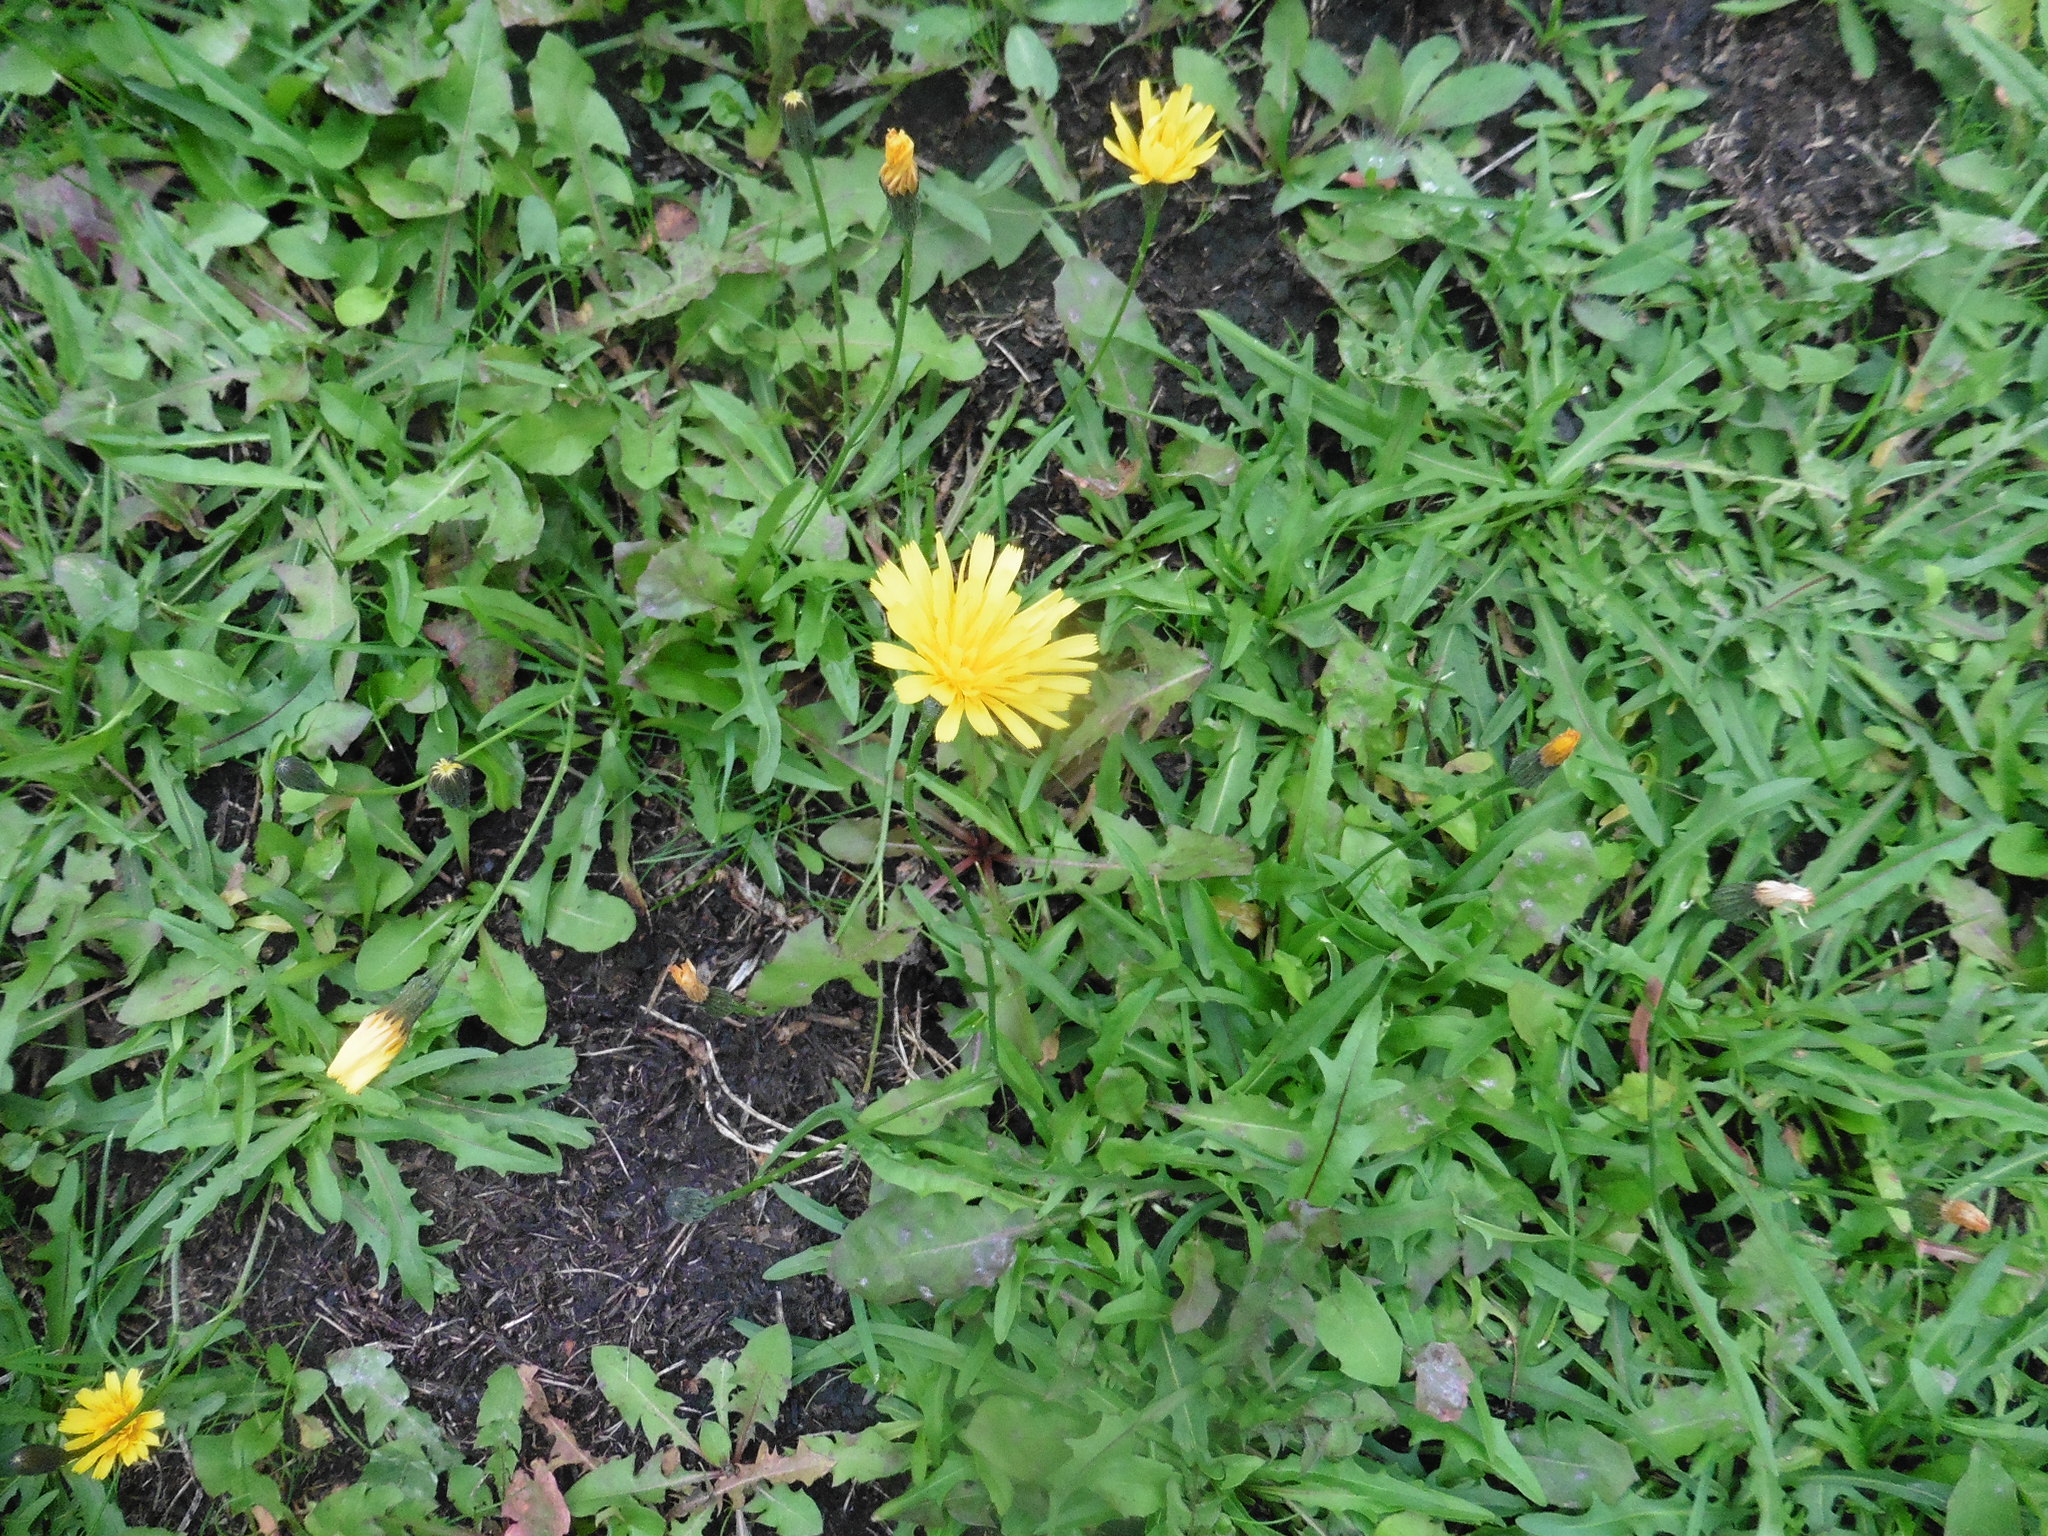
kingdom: Plantae
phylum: Tracheophyta
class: Magnoliopsida
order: Asterales
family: Asteraceae
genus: Scorzoneroides
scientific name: Scorzoneroides autumnalis
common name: Autumn hawkbit
